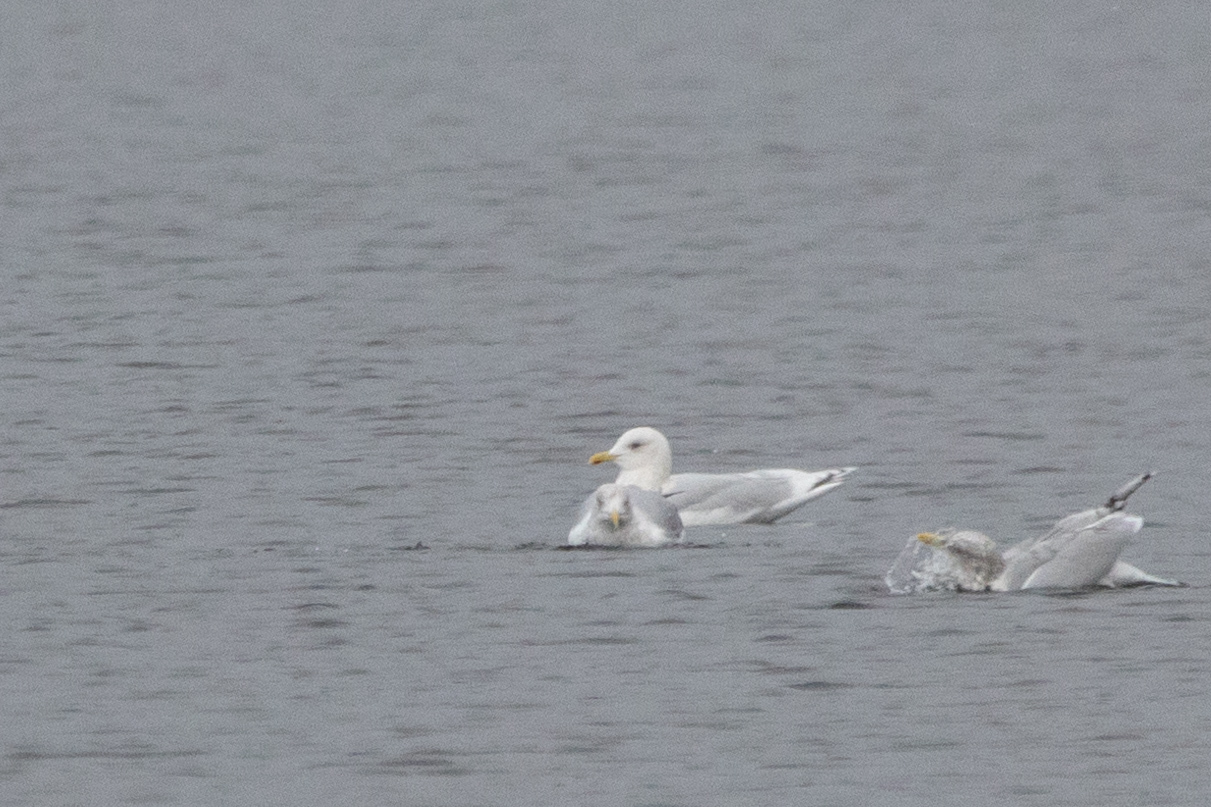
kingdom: Animalia
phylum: Chordata
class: Aves
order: Charadriiformes
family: Laridae
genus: Larus
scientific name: Larus glaucoides
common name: Iceland gull
